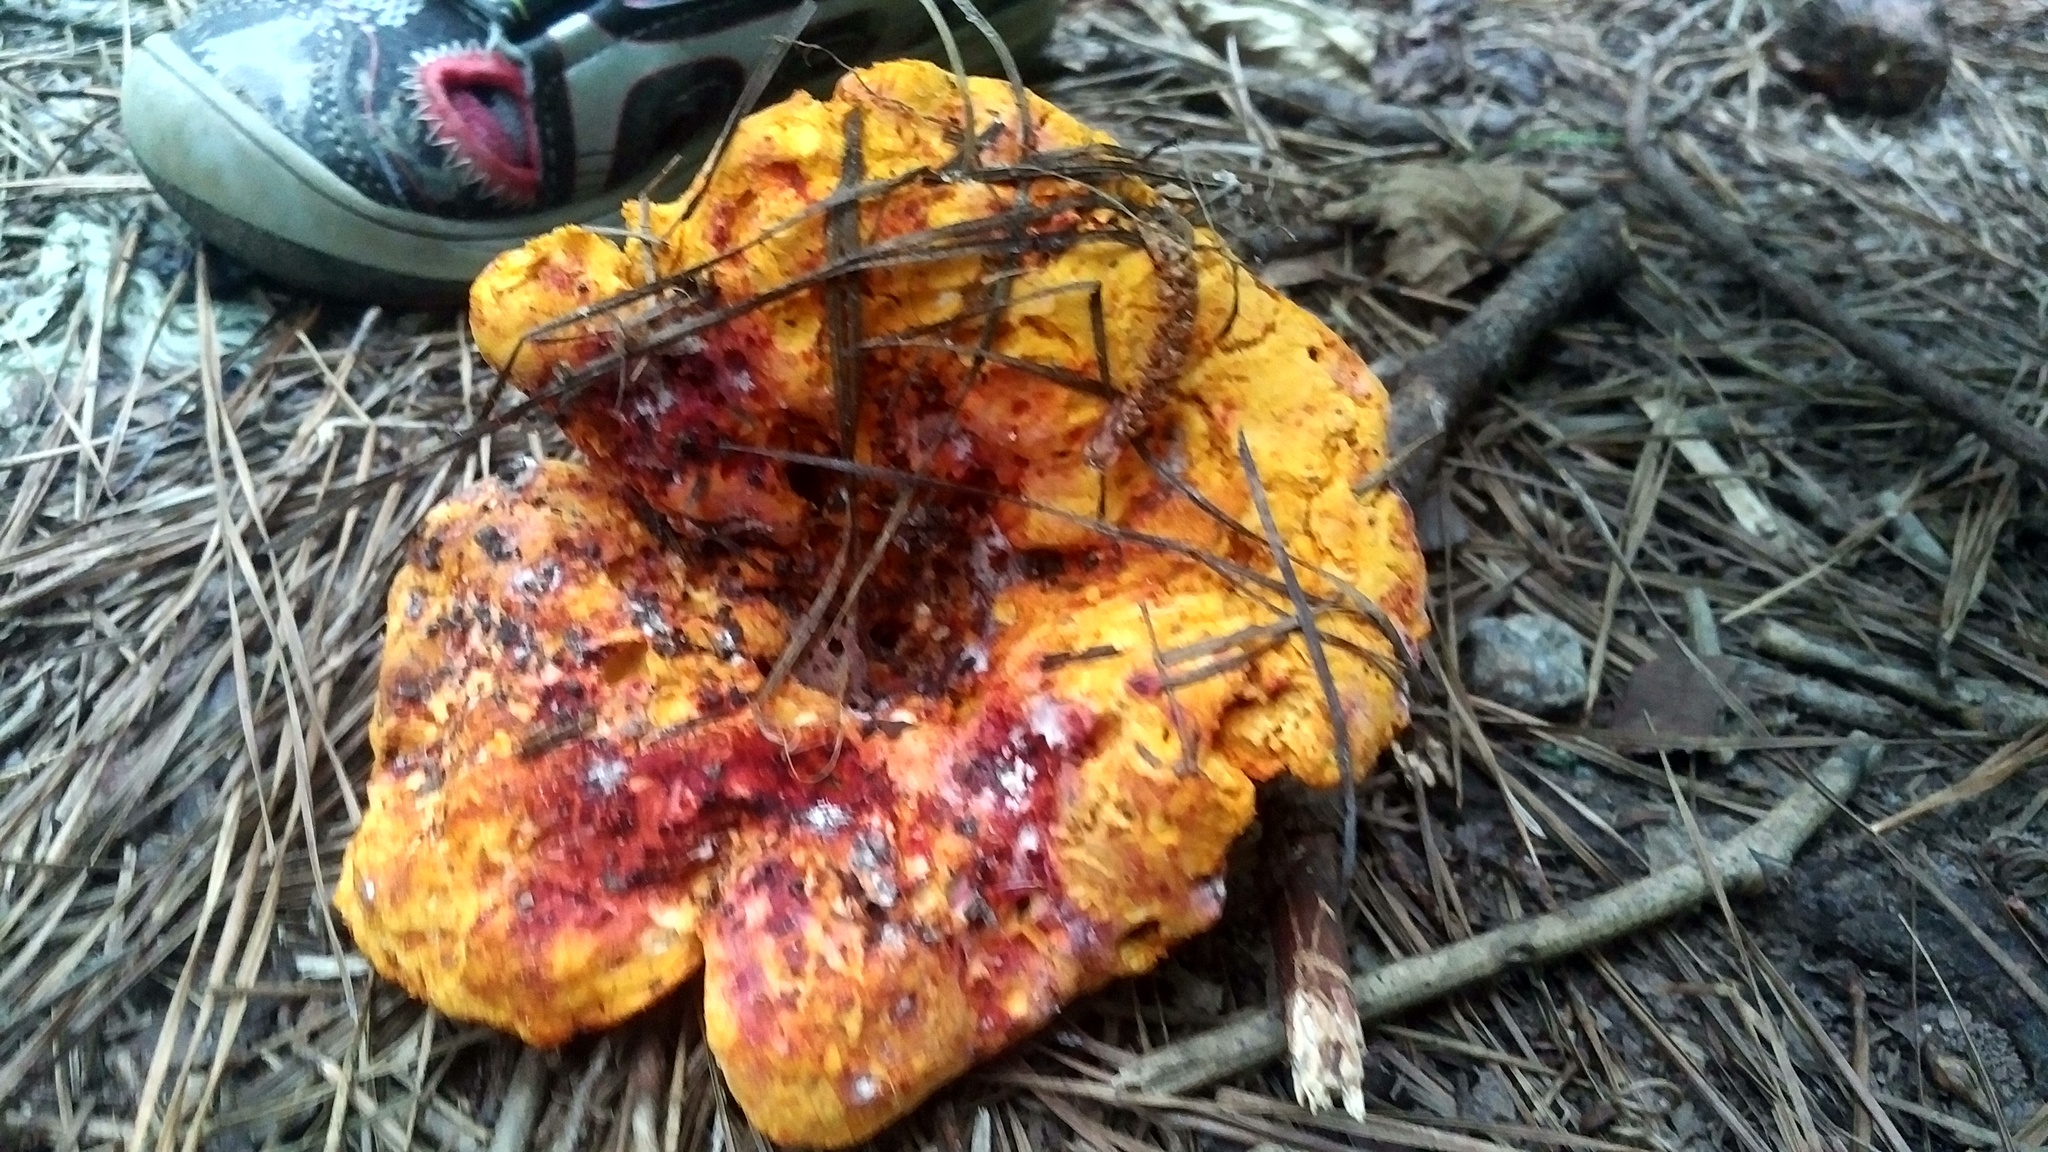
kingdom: Fungi
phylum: Ascomycota
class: Sordariomycetes
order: Hypocreales
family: Hypocreaceae
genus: Hypomyces
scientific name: Hypomyces lactifluorum
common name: Lobster mushroom
